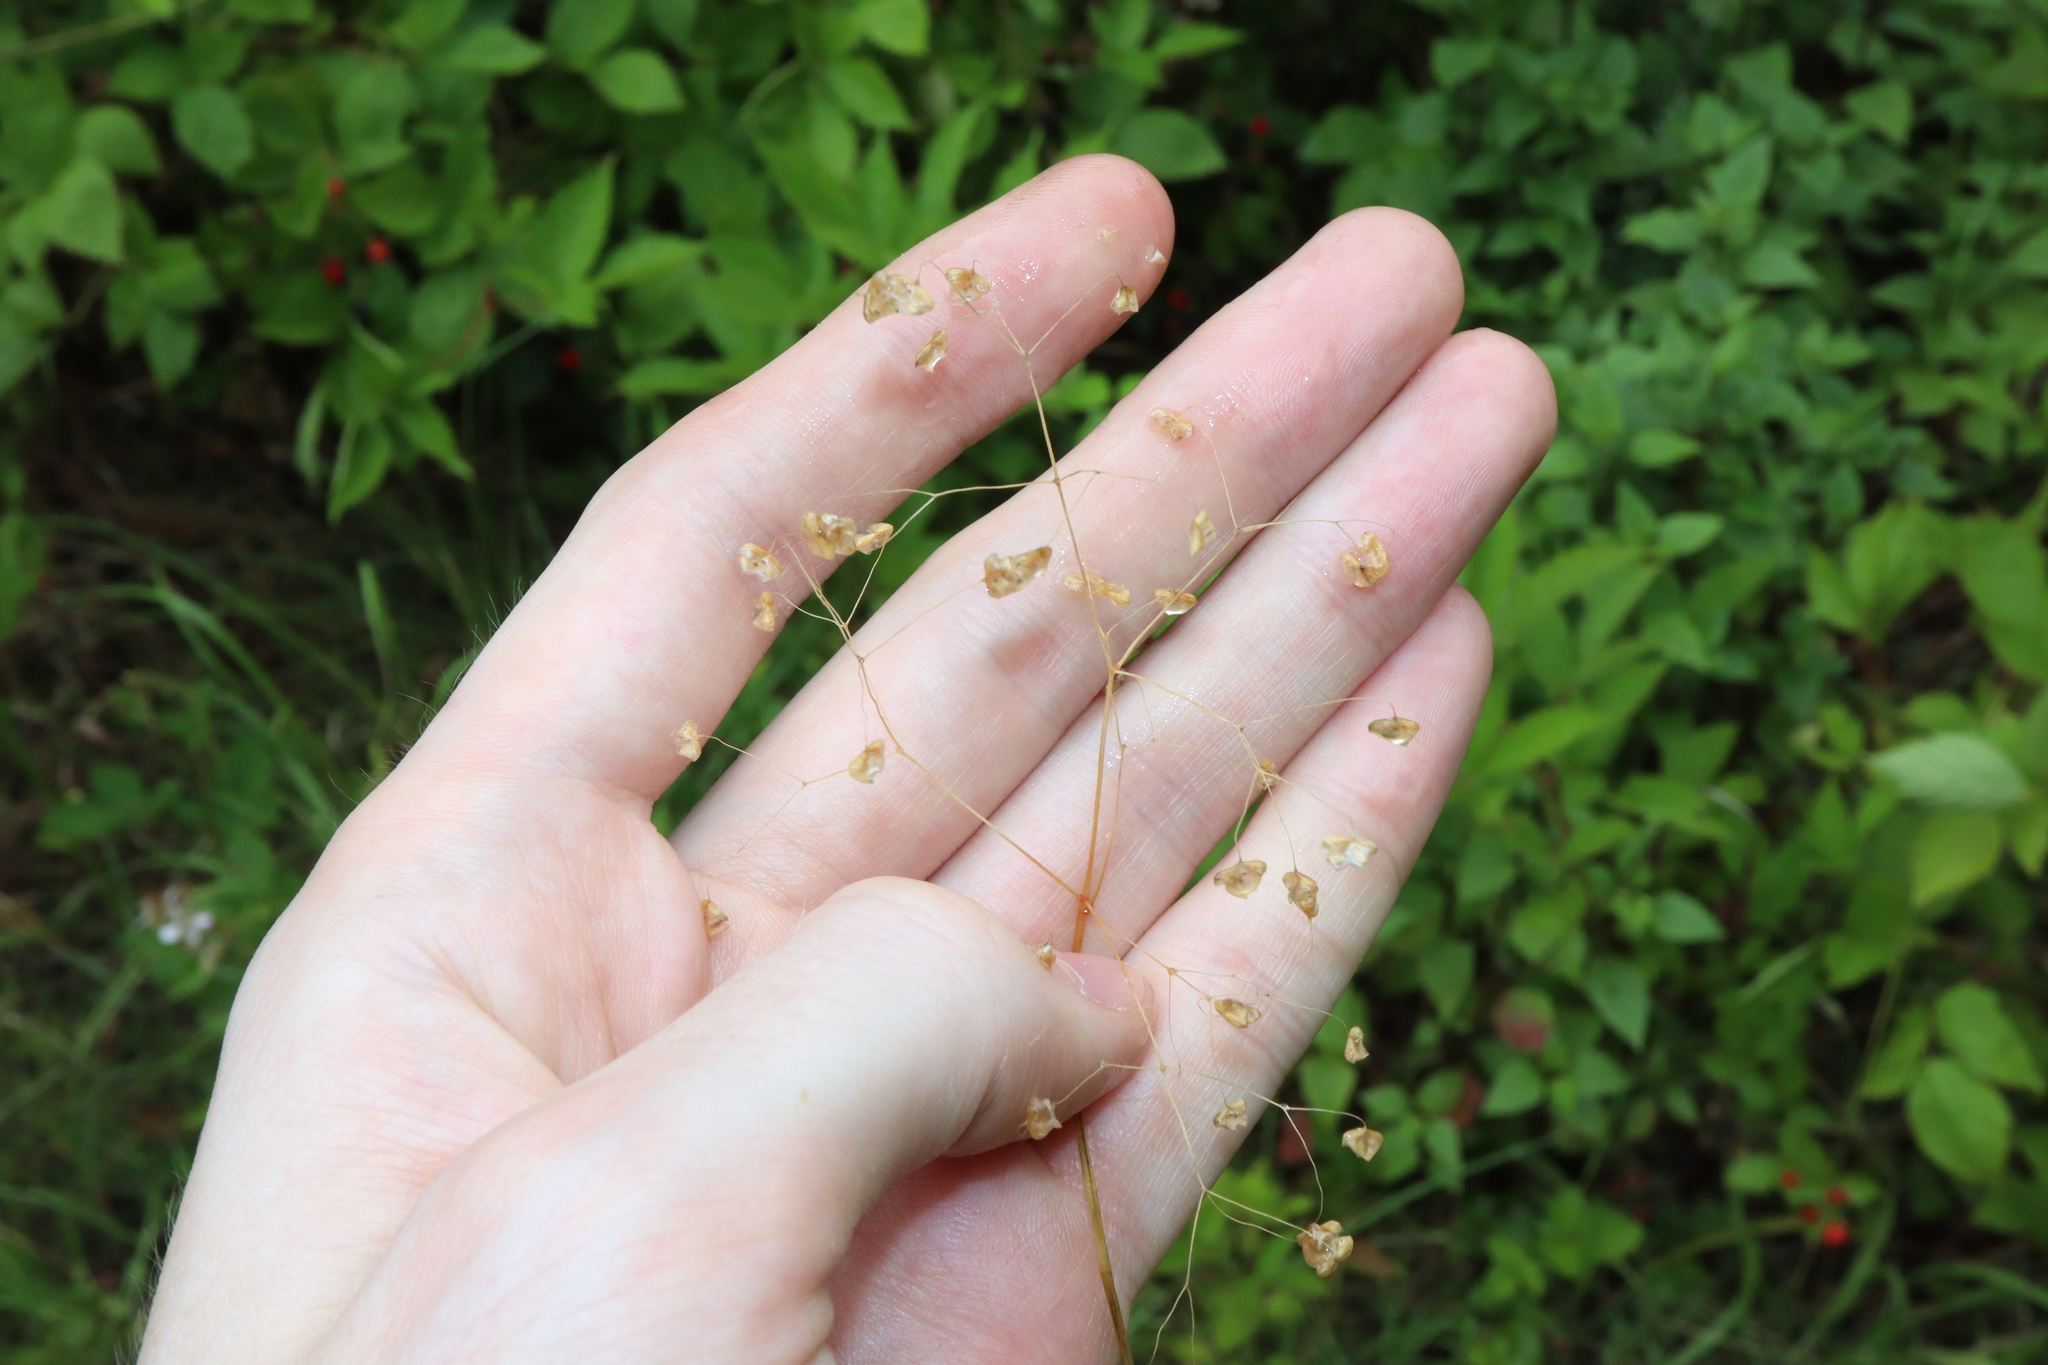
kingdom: Plantae
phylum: Tracheophyta
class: Liliopsida
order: Poales
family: Poaceae
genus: Briza
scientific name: Briza minor
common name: Lesser quaking-grass
